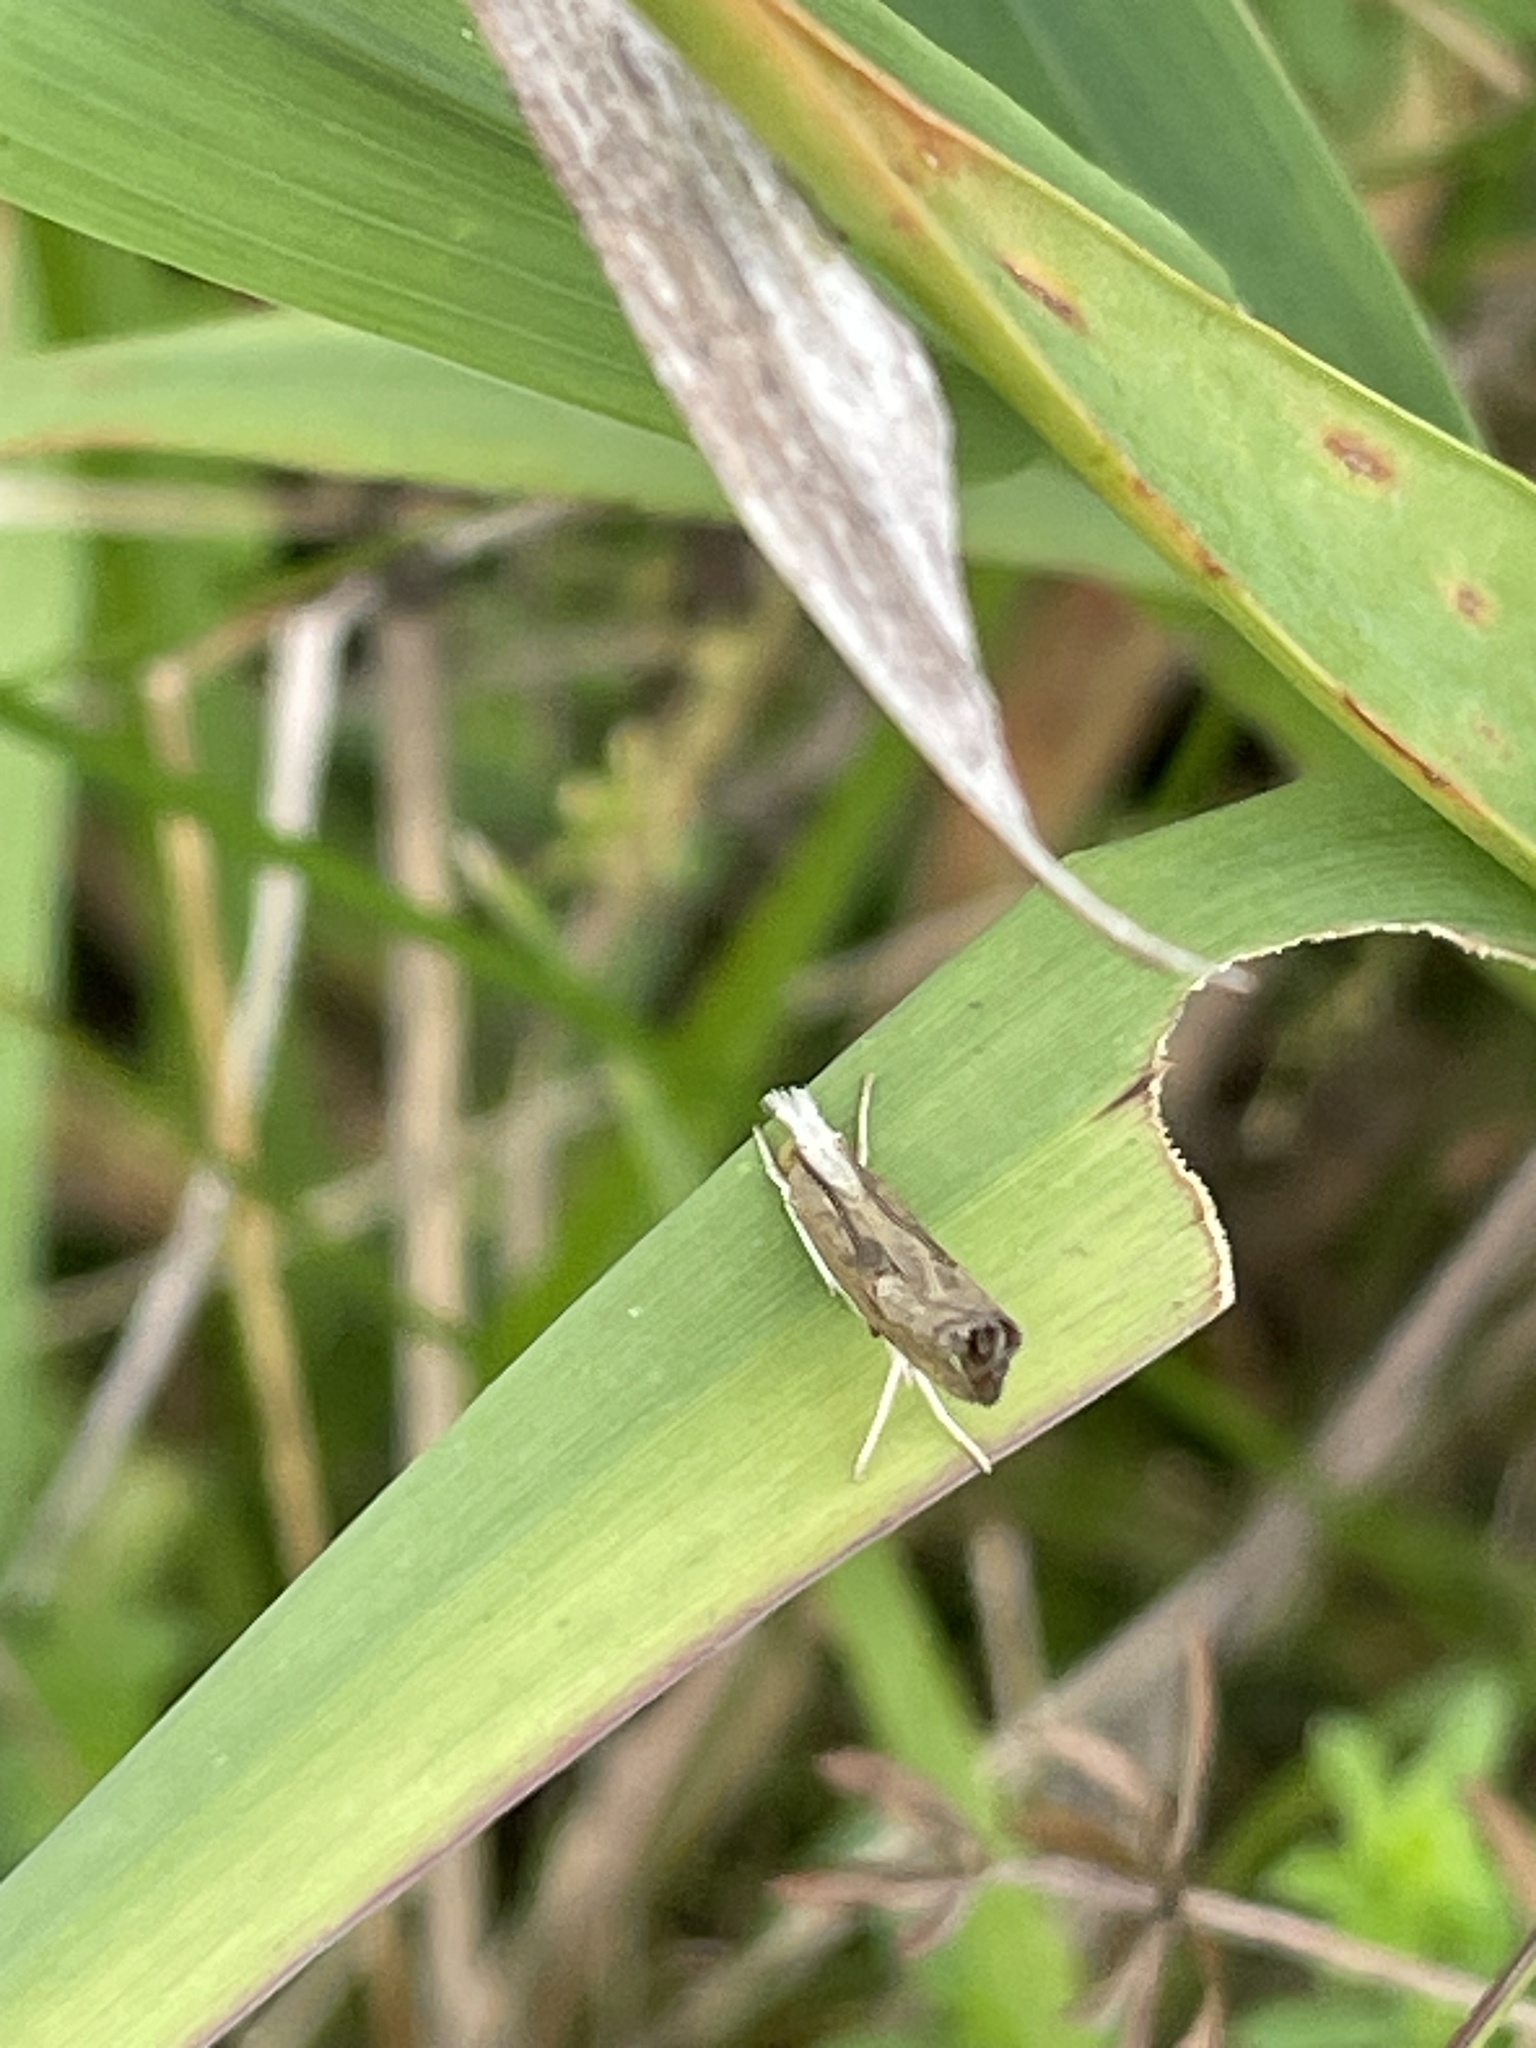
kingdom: Animalia
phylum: Arthropoda
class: Insecta
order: Lepidoptera
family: Crambidae
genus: Parapediasia
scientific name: Parapediasia teterellus
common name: Bluegrass webworm moth
